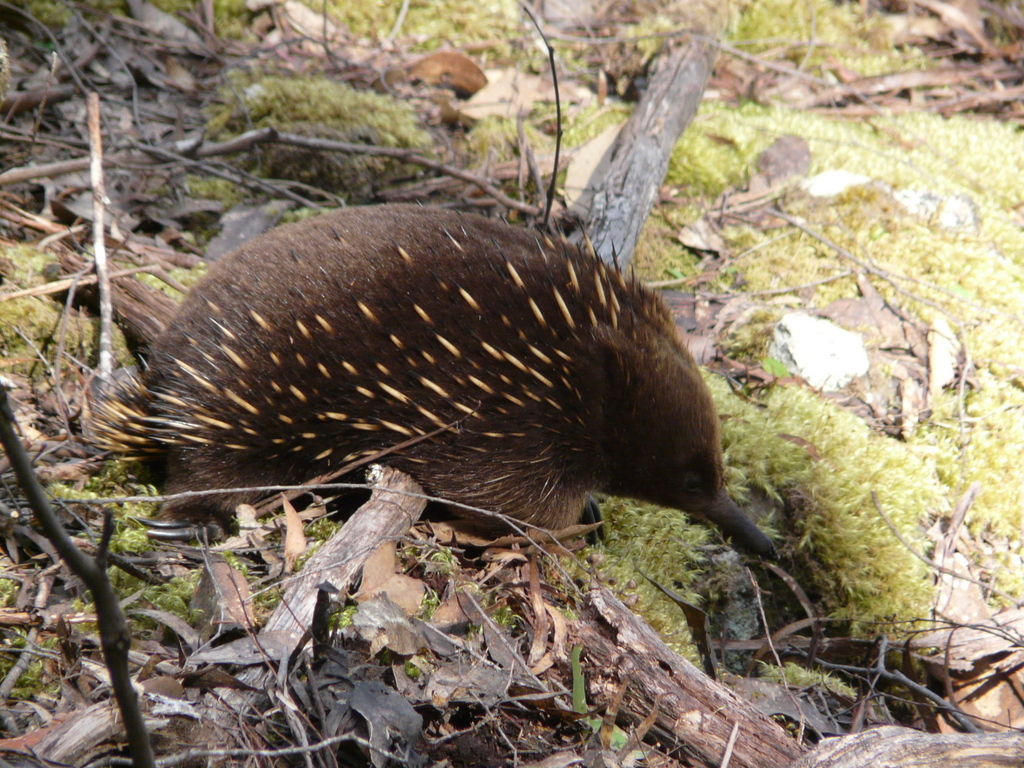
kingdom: Animalia
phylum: Chordata
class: Mammalia
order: Monotremata
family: Tachyglossidae
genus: Tachyglossus
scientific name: Tachyglossus aculeatus
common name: Short-beaked echidna
